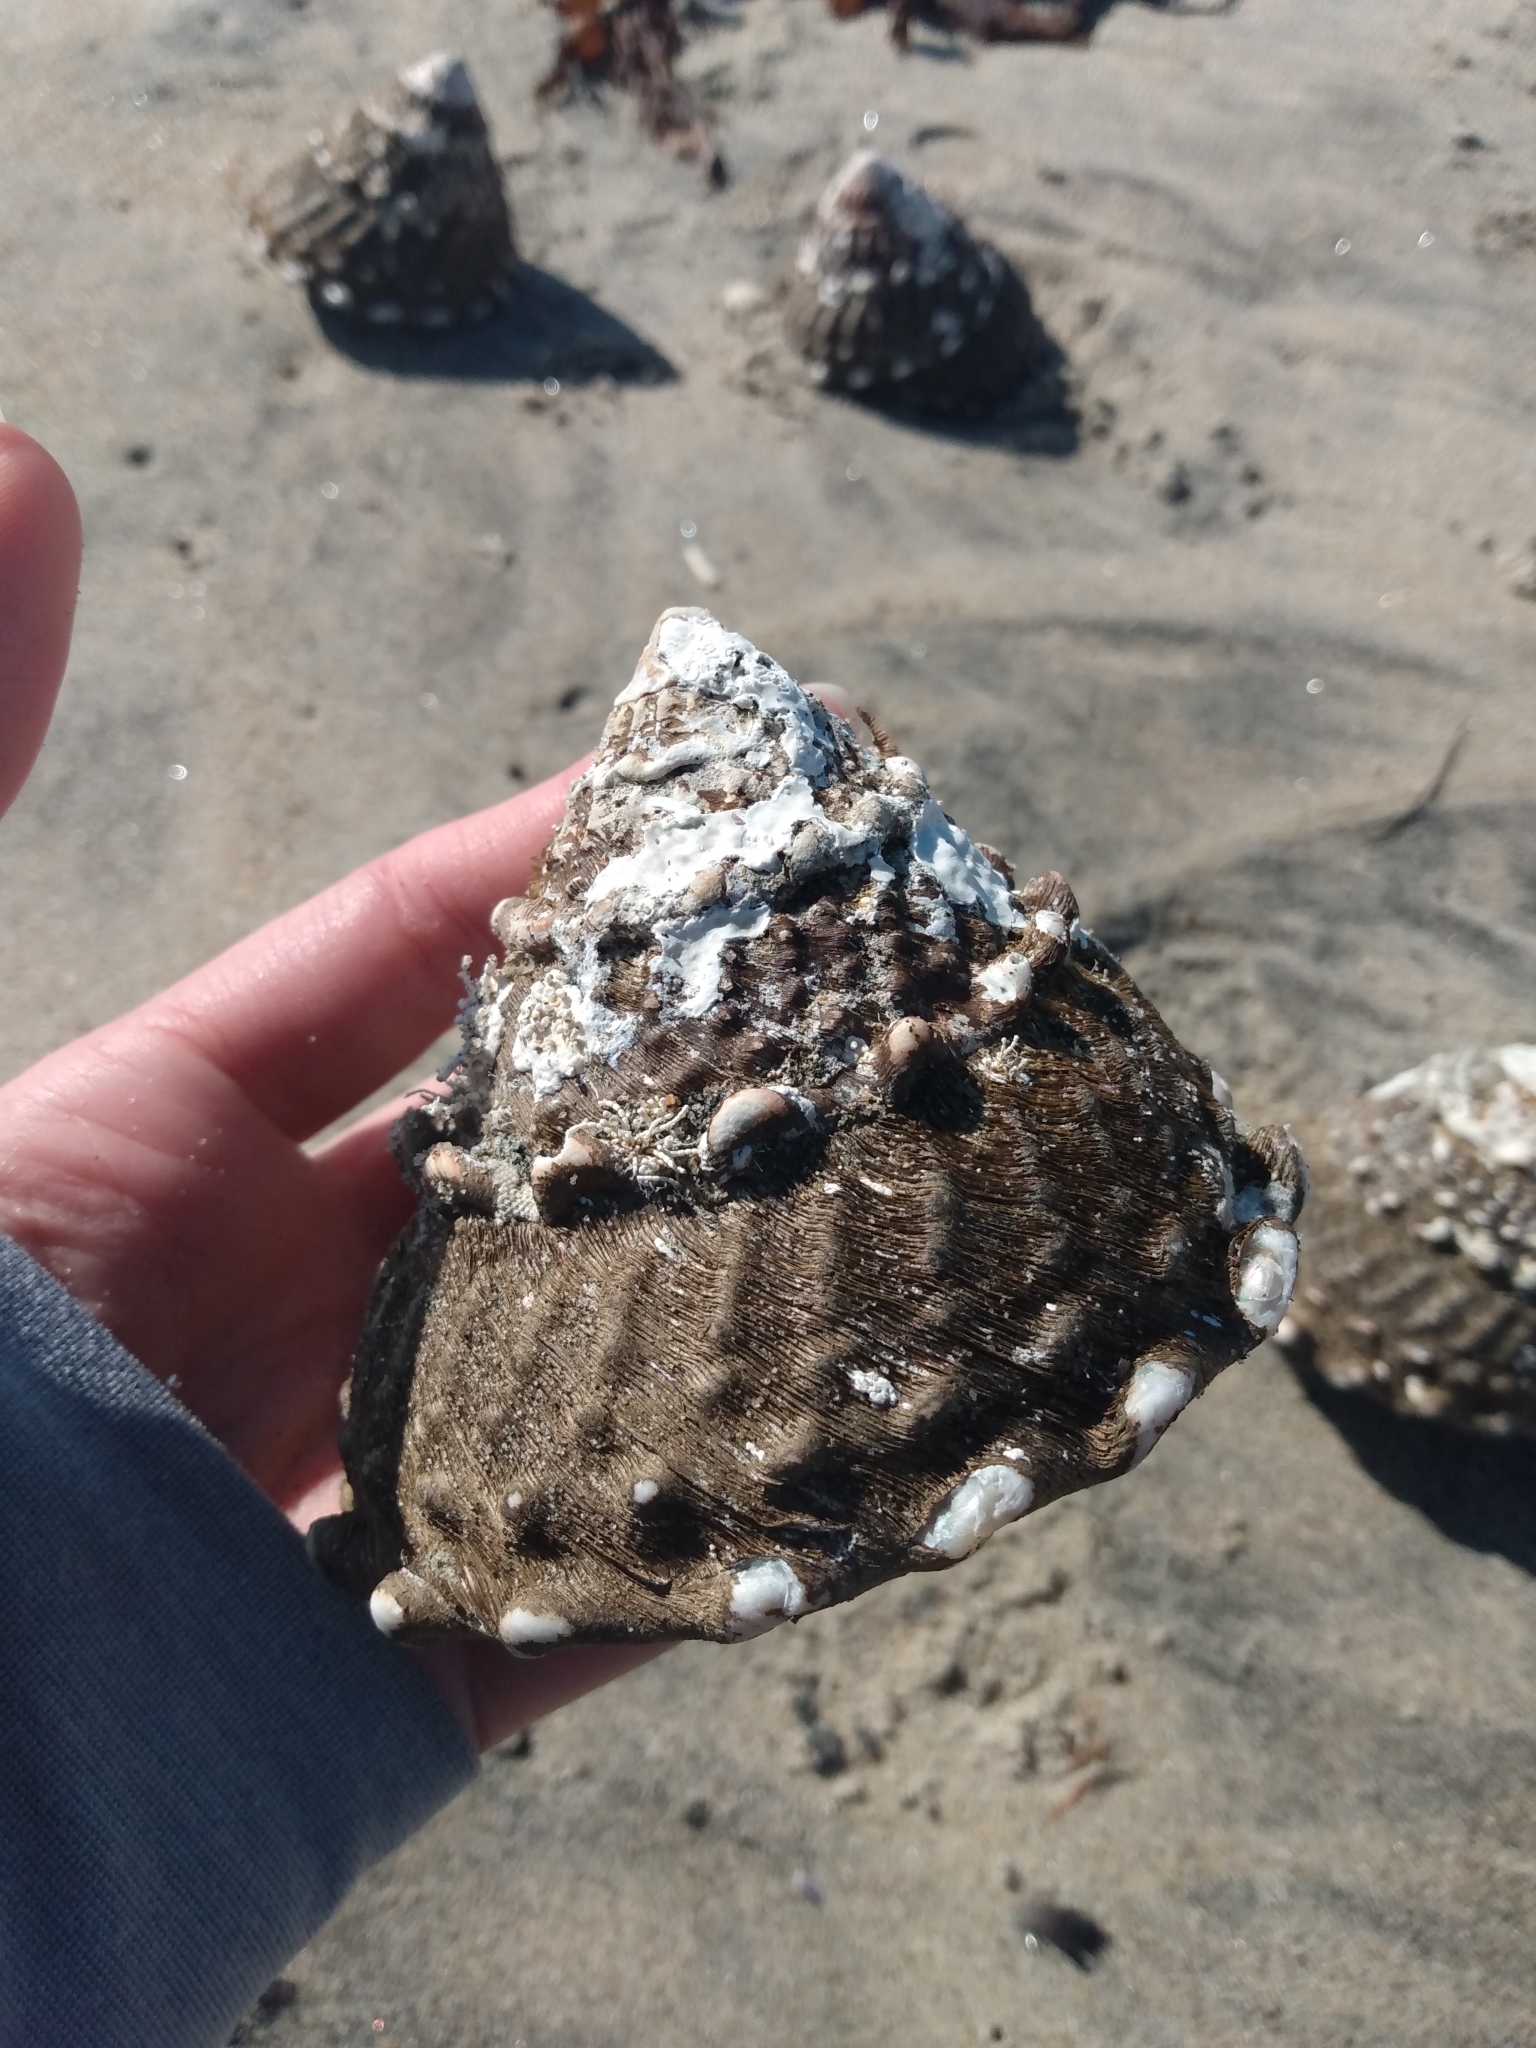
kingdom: Animalia
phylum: Mollusca
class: Gastropoda
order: Trochida
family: Turbinidae
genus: Megastraea
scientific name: Megastraea undosa
